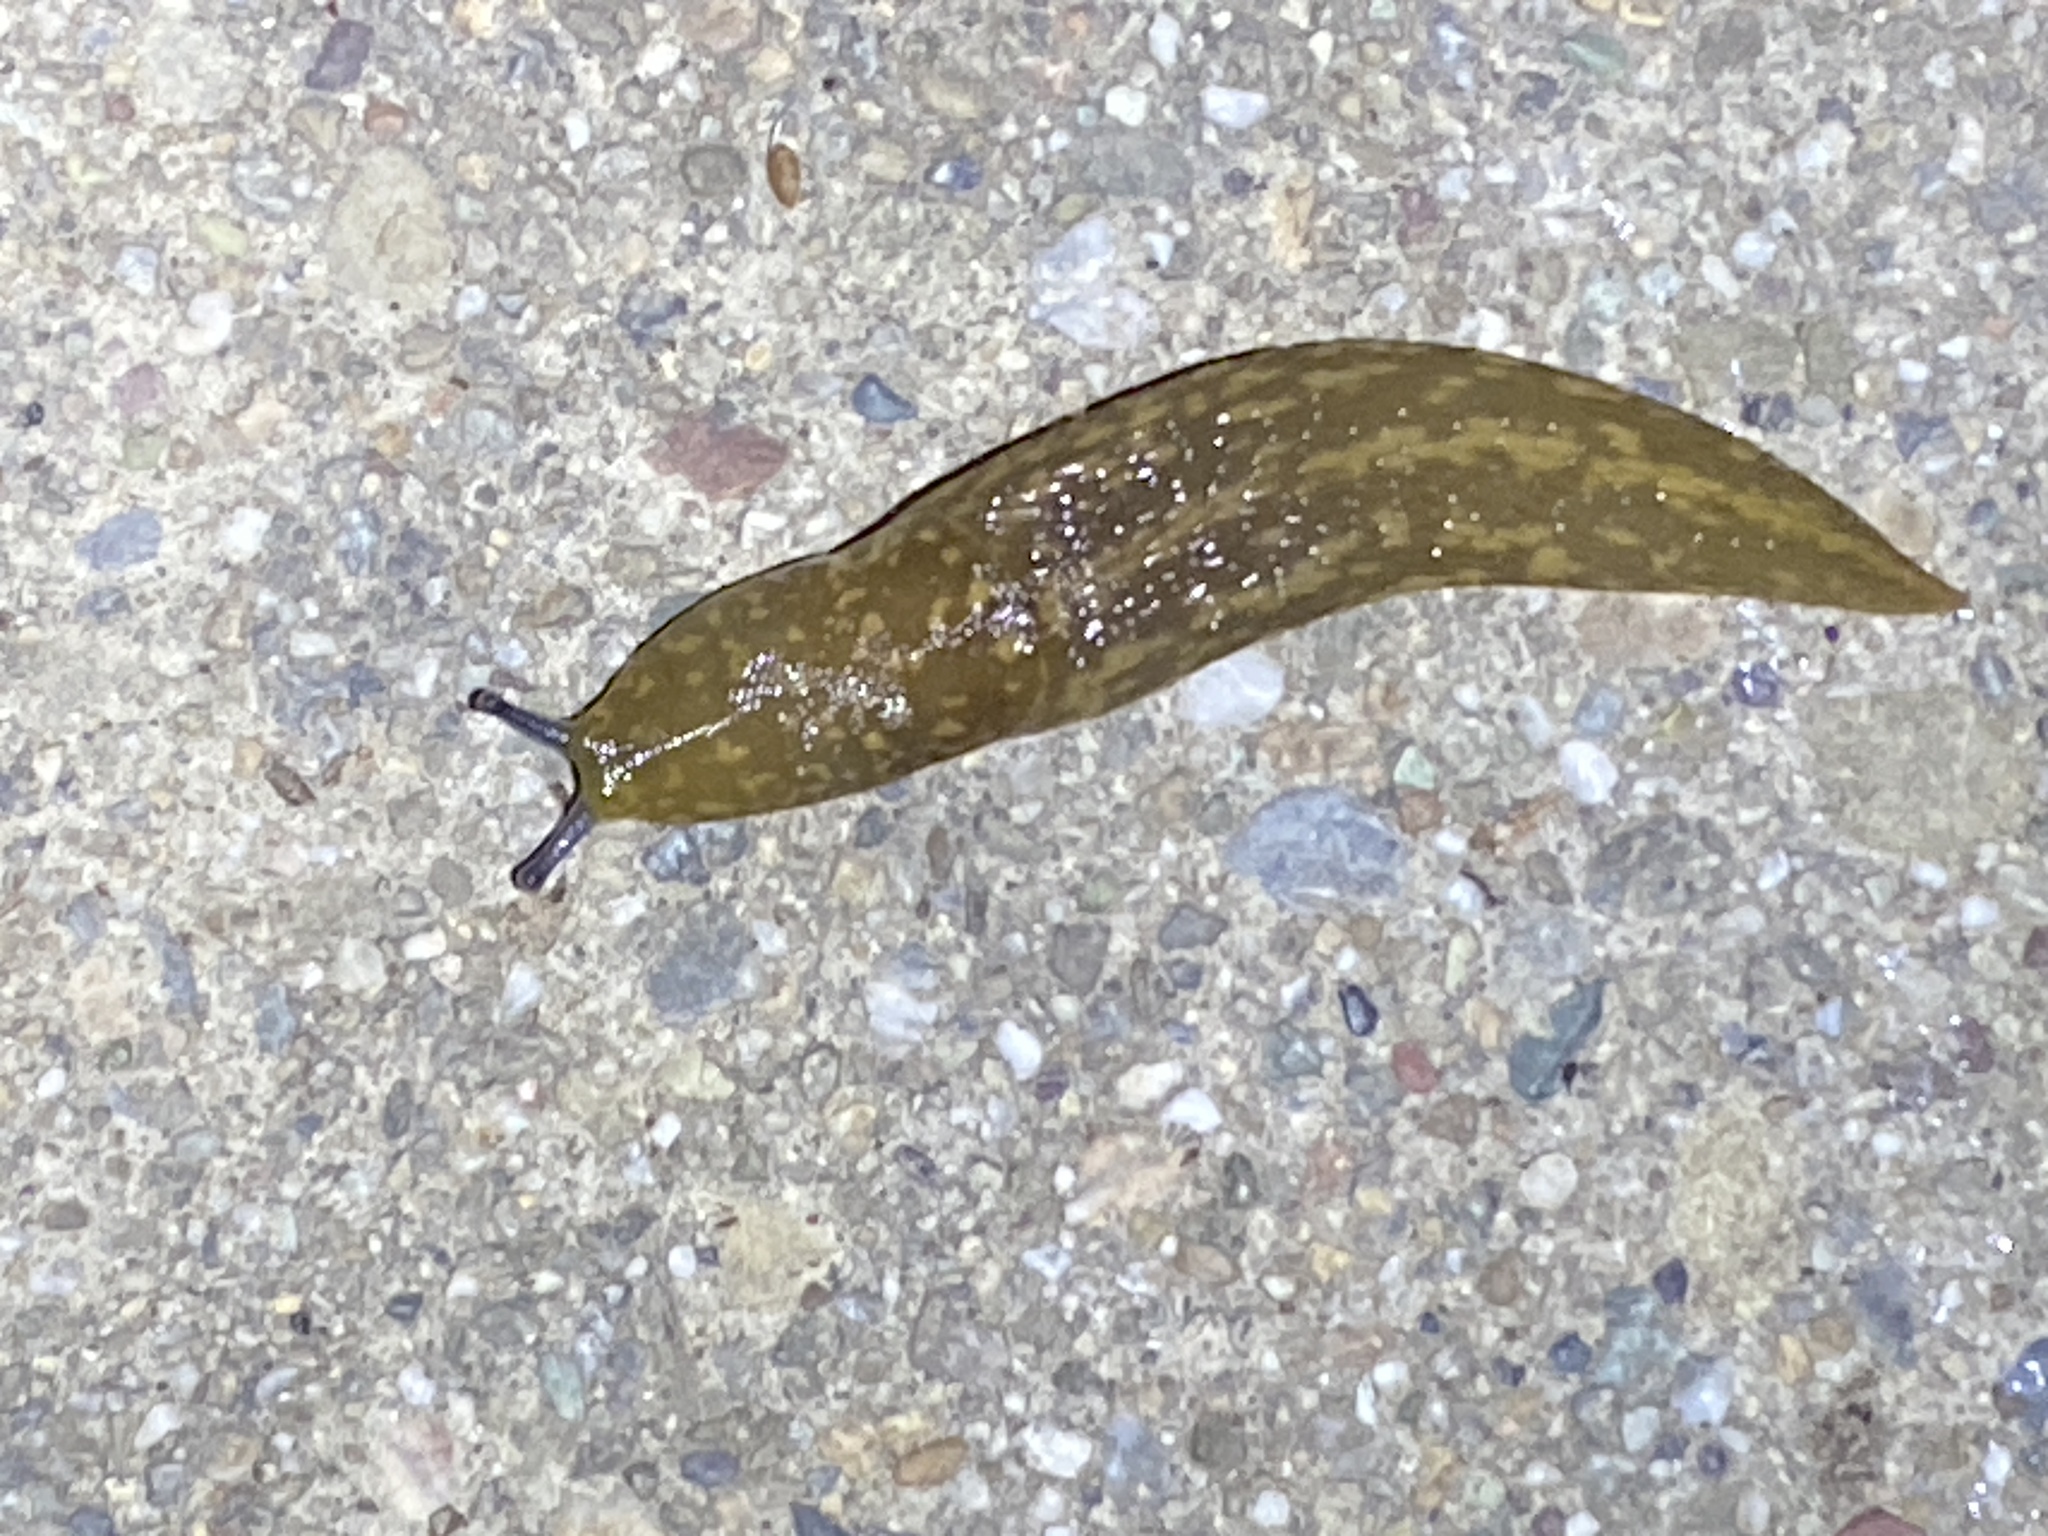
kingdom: Animalia
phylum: Mollusca
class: Gastropoda
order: Stylommatophora
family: Limacidae
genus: Limacus
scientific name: Limacus flavus
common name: Yellow gardenslug
